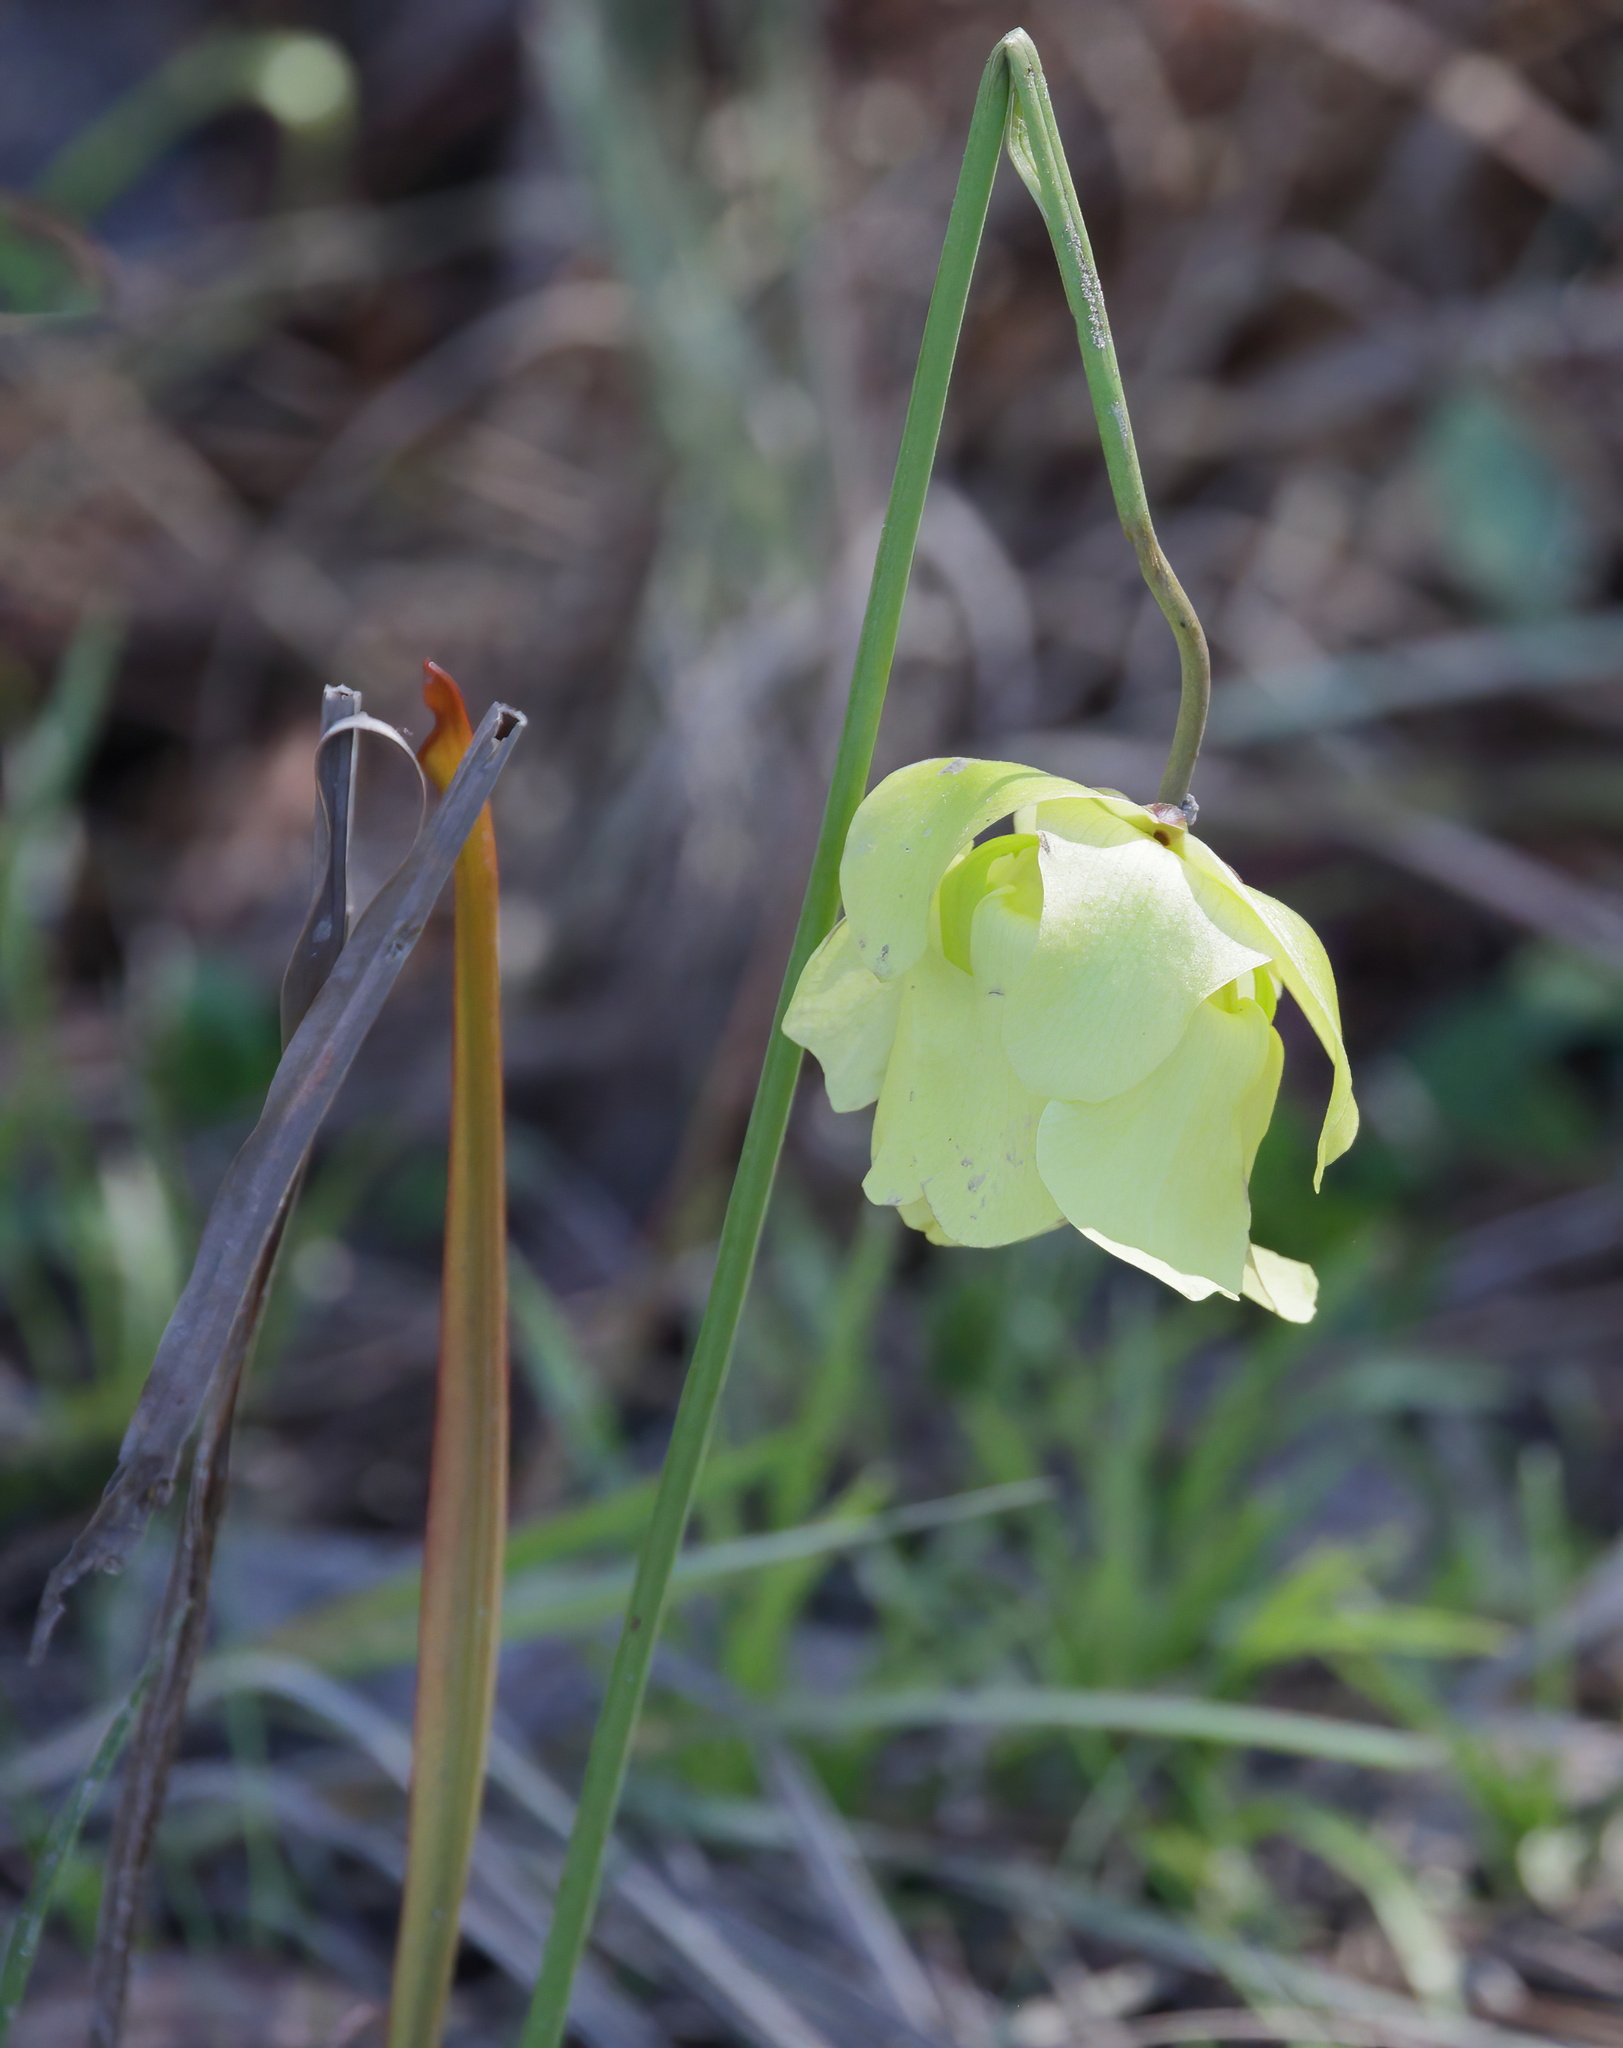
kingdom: Plantae
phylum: Tracheophyta
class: Magnoliopsida
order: Ericales
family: Sarraceniaceae
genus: Sarracenia
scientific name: Sarracenia alata
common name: Yellow trumpets
